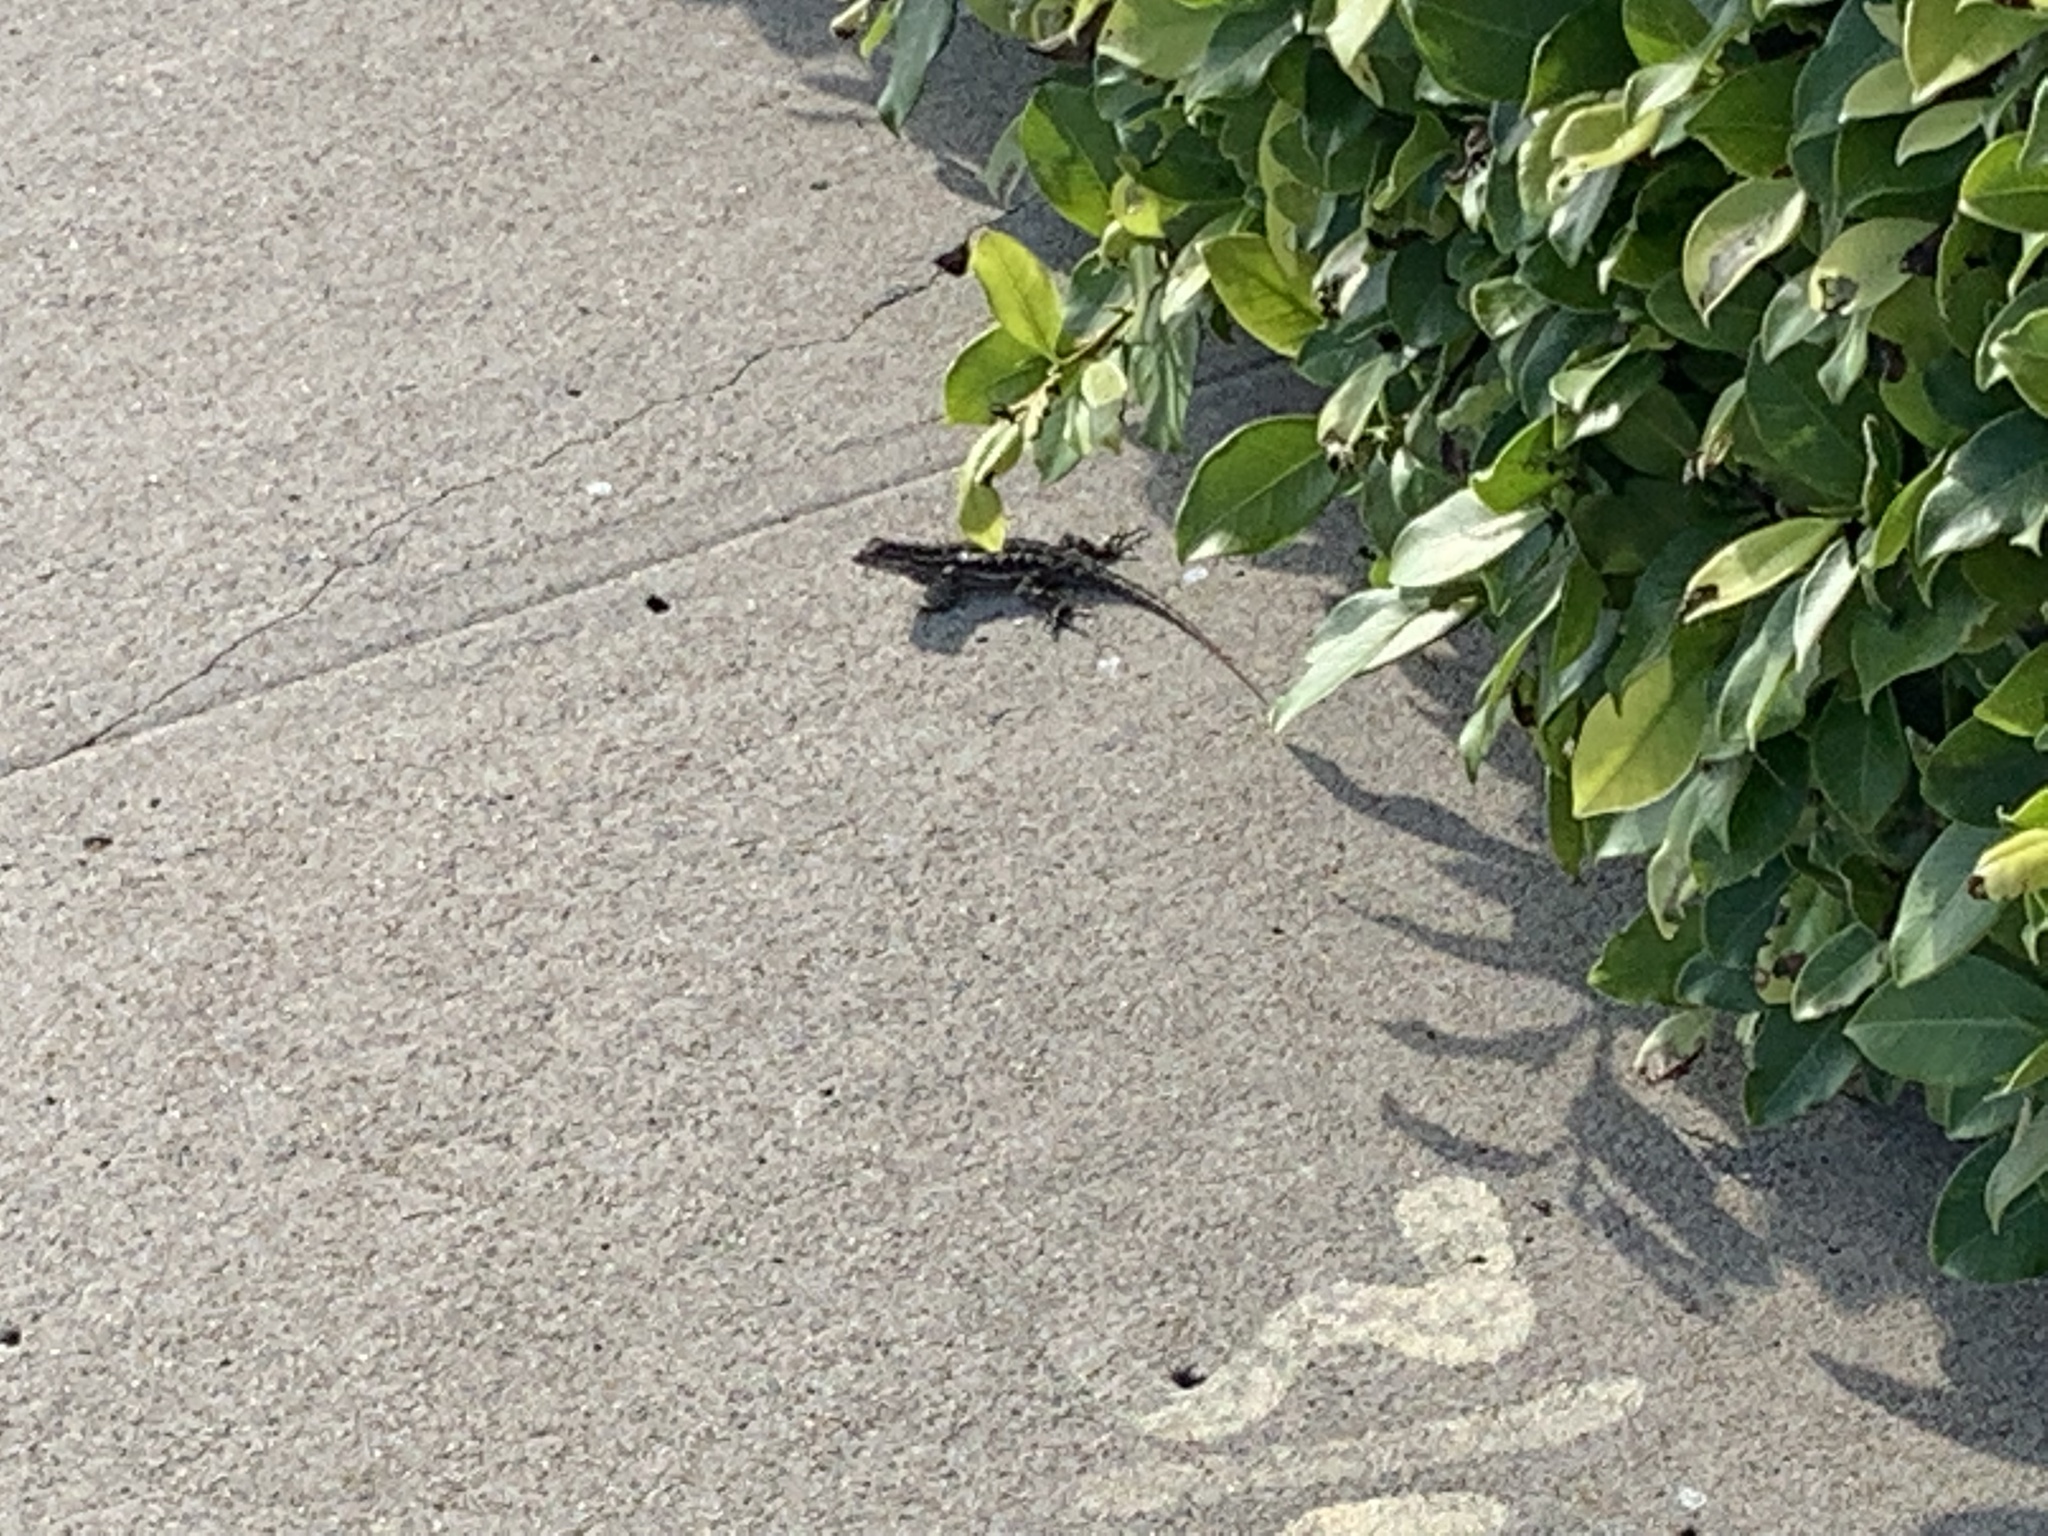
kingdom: Animalia
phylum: Chordata
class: Squamata
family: Phrynosomatidae
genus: Sceloporus
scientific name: Sceloporus occidentalis
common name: Western fence lizard
